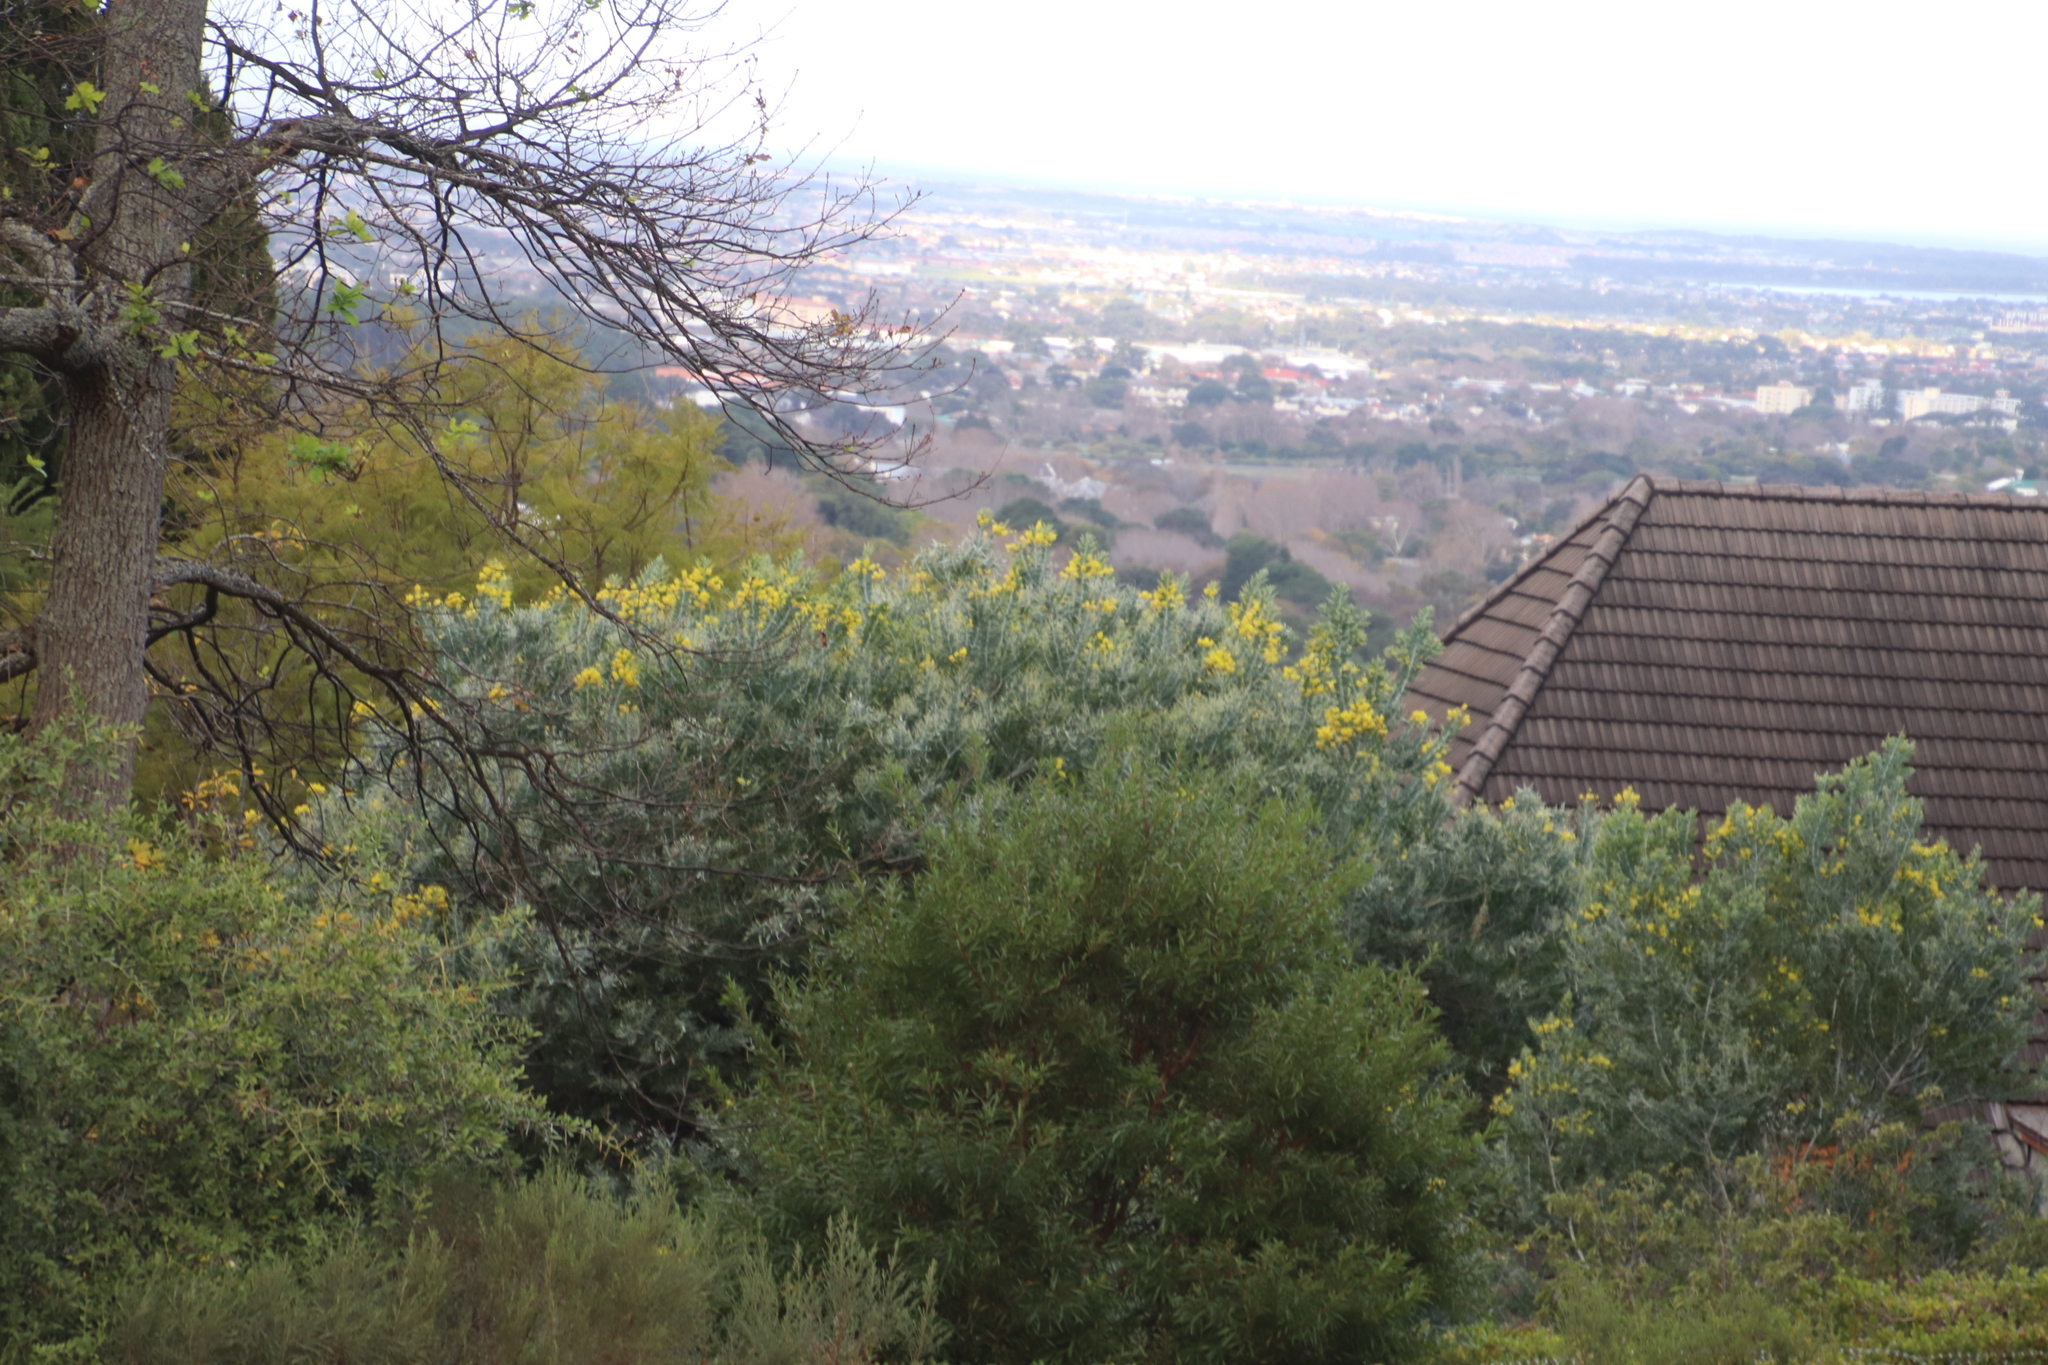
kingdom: Plantae
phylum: Tracheophyta
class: Magnoliopsida
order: Fabales
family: Fabaceae
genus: Acacia
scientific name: Acacia podalyriifolia
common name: Pearl wattle
